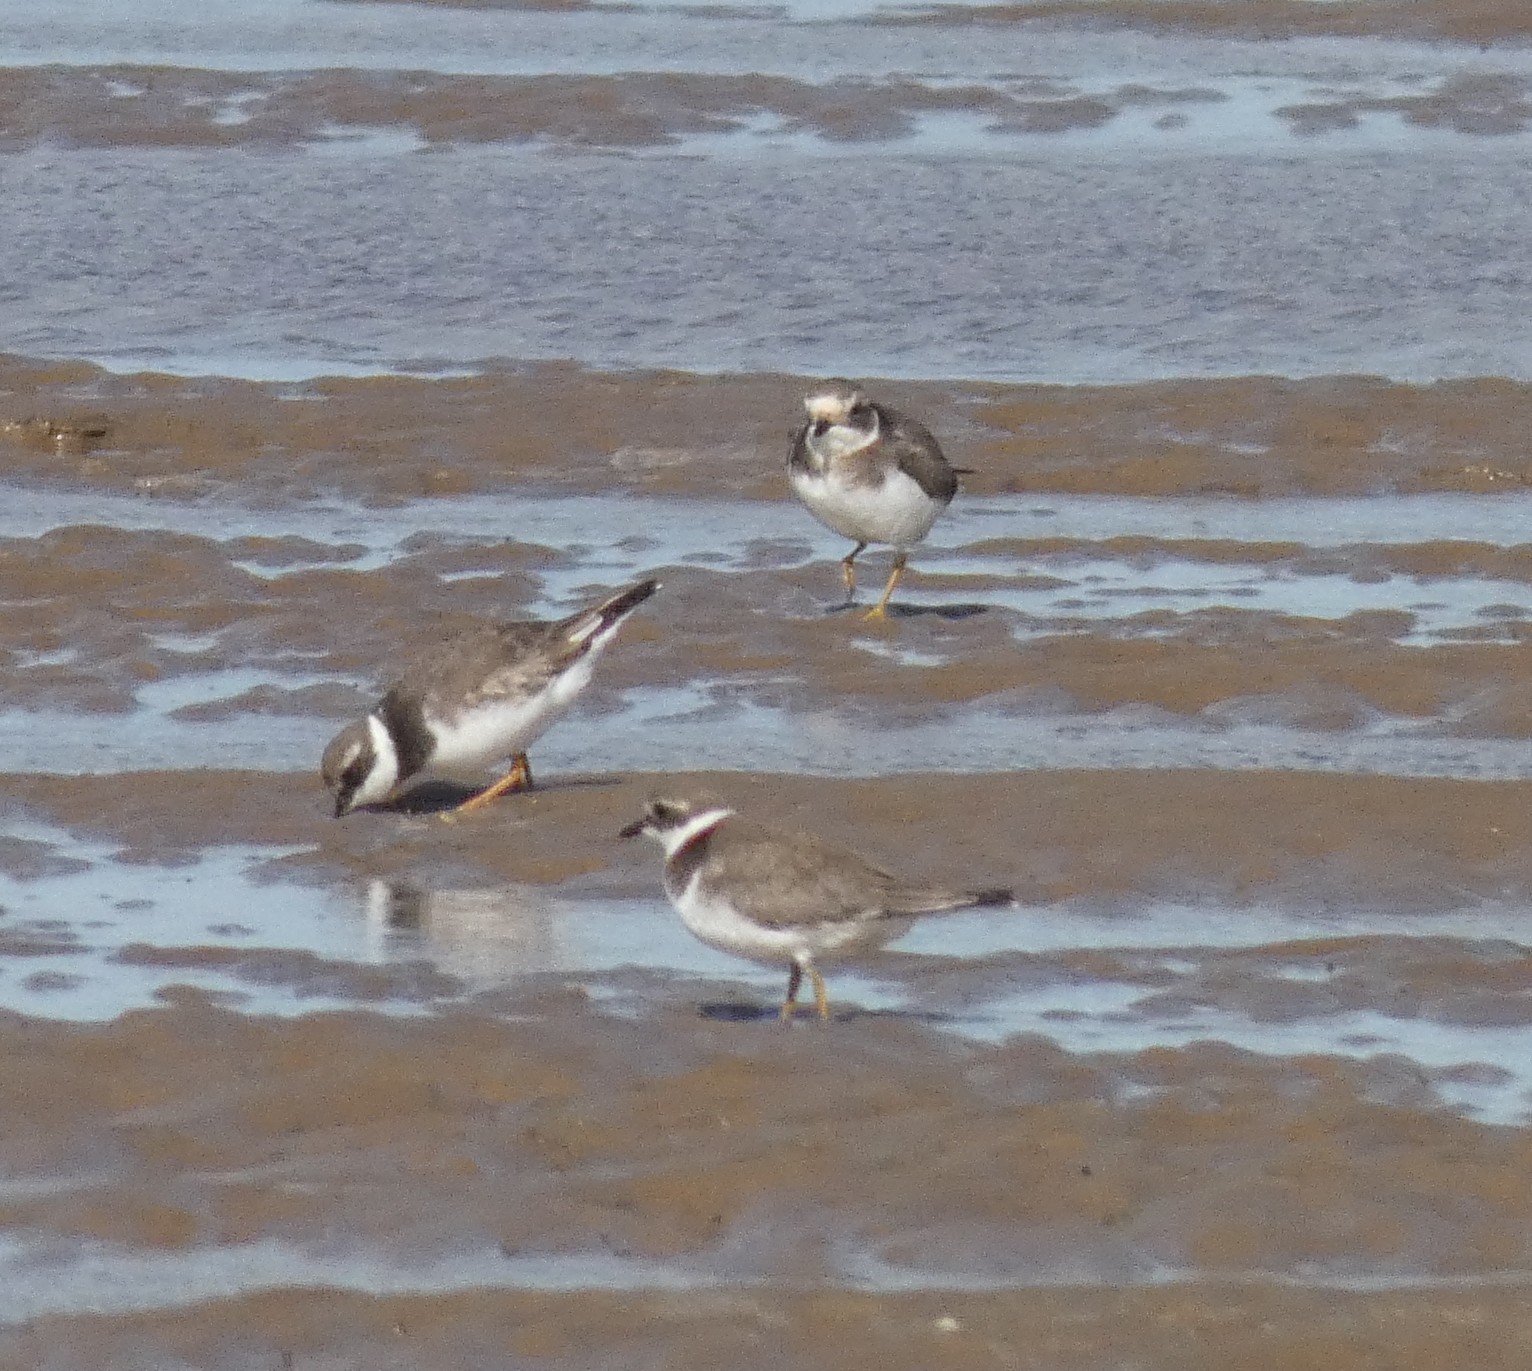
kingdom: Animalia
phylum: Chordata
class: Aves
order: Charadriiformes
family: Charadriidae
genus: Charadrius
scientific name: Charadrius hiaticula
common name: Common ringed plover
